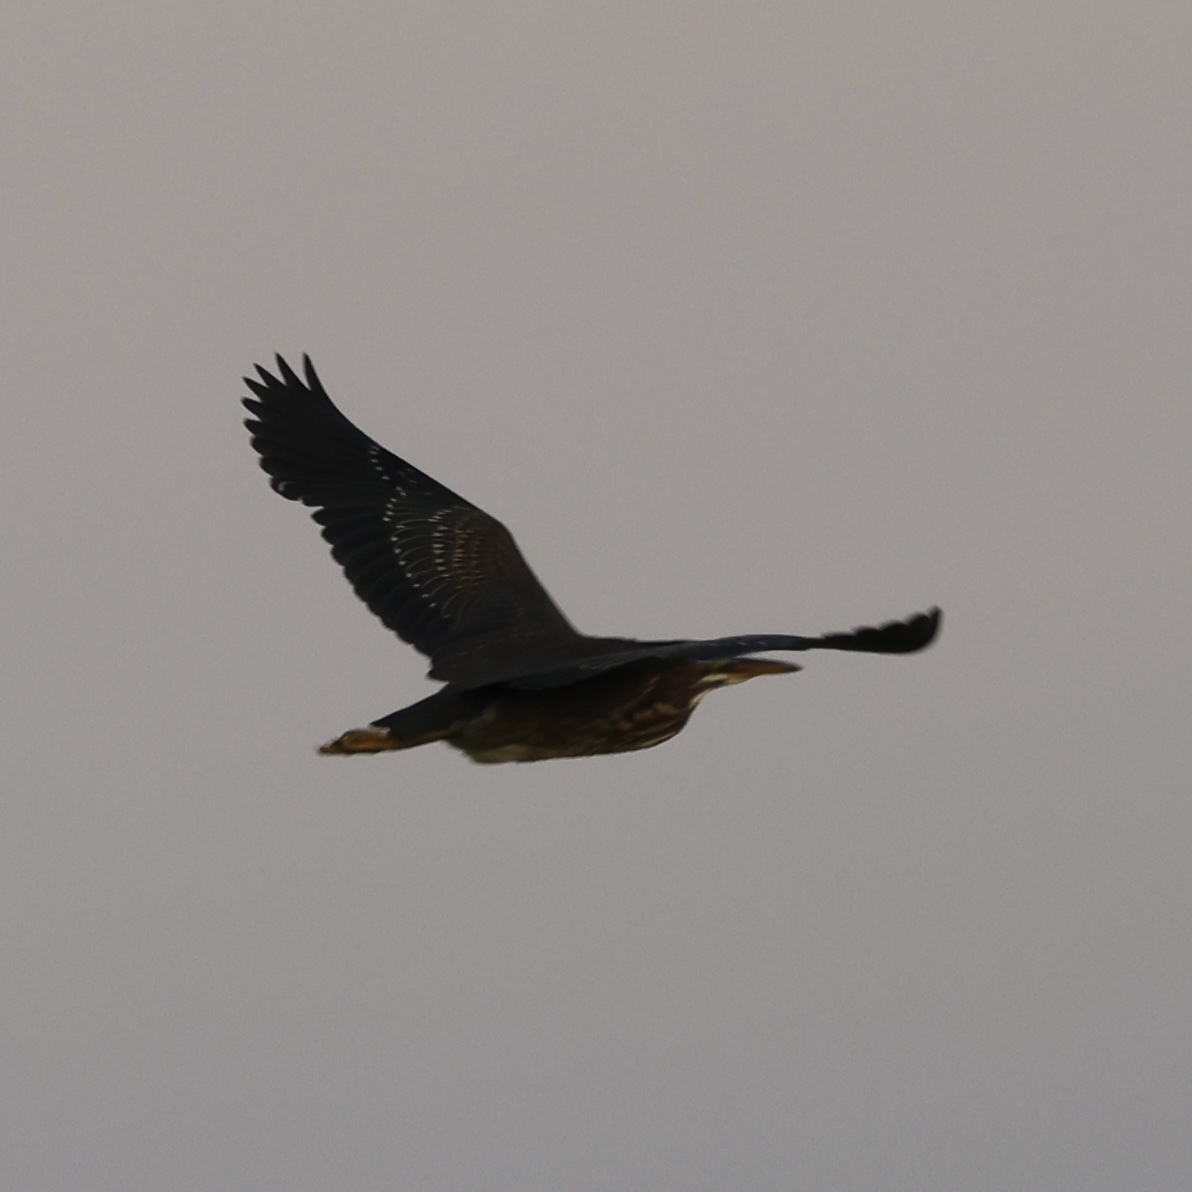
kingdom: Animalia
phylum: Chordata
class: Aves
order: Pelecaniformes
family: Ardeidae
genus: Butorides
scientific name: Butorides virescens
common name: Green heron
